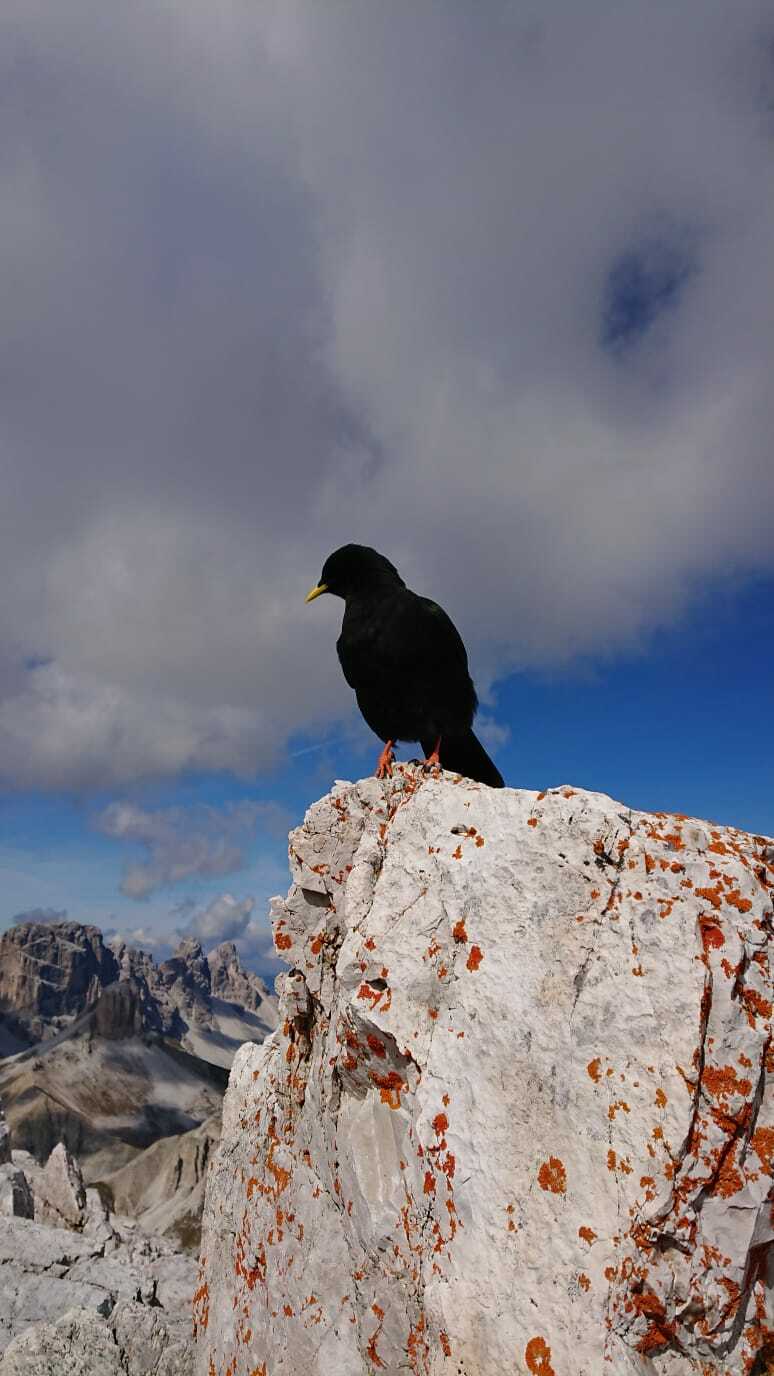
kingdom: Animalia
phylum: Chordata
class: Aves
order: Passeriformes
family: Corvidae
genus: Pyrrhocorax
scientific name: Pyrrhocorax graculus
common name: Alpine chough
